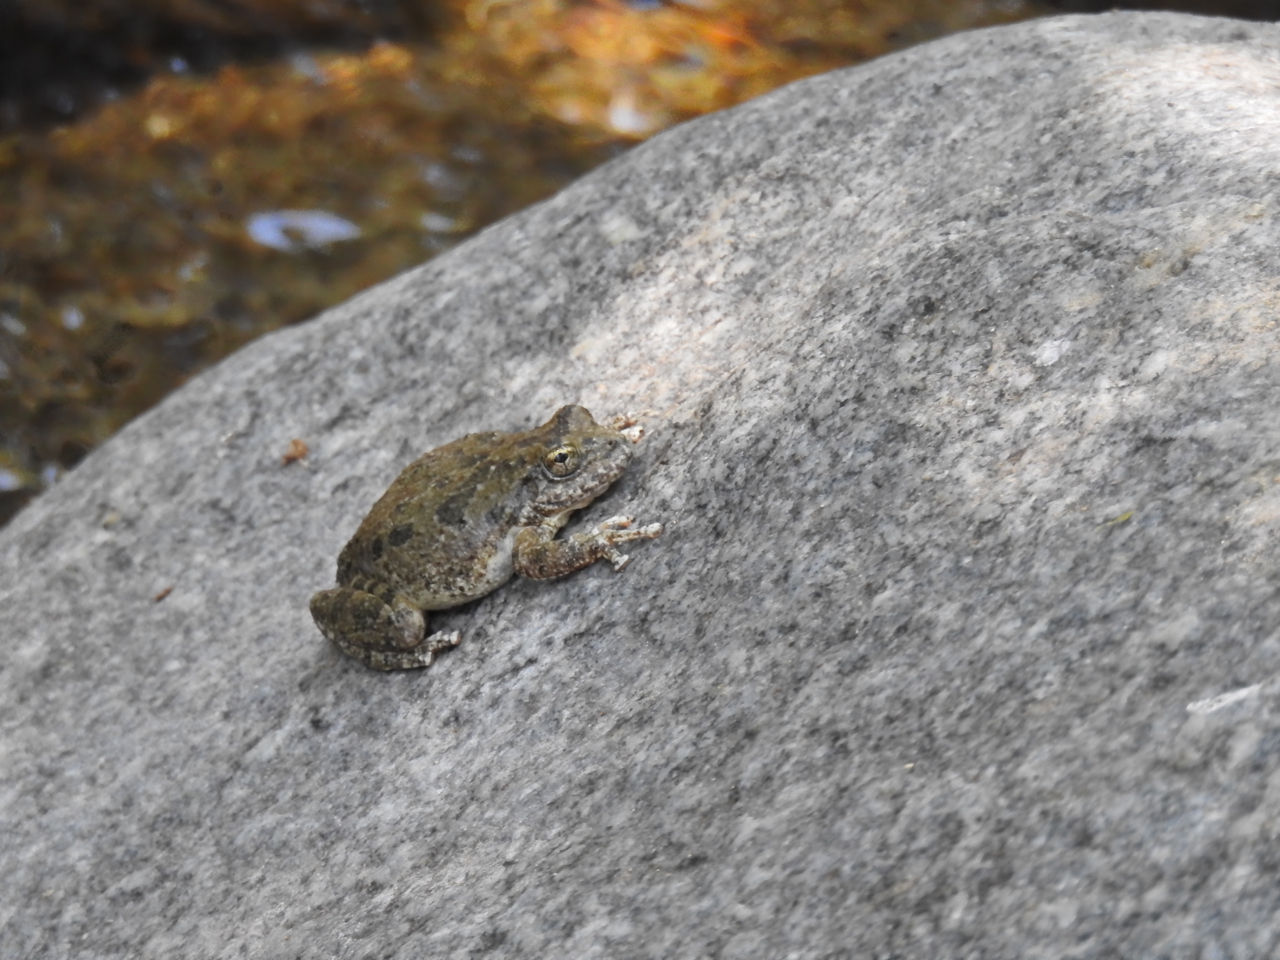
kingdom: Animalia
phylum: Chordata
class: Amphibia
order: Anura
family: Hylidae
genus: Pseudacris
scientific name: Pseudacris cadaverina
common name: California chorus frog
